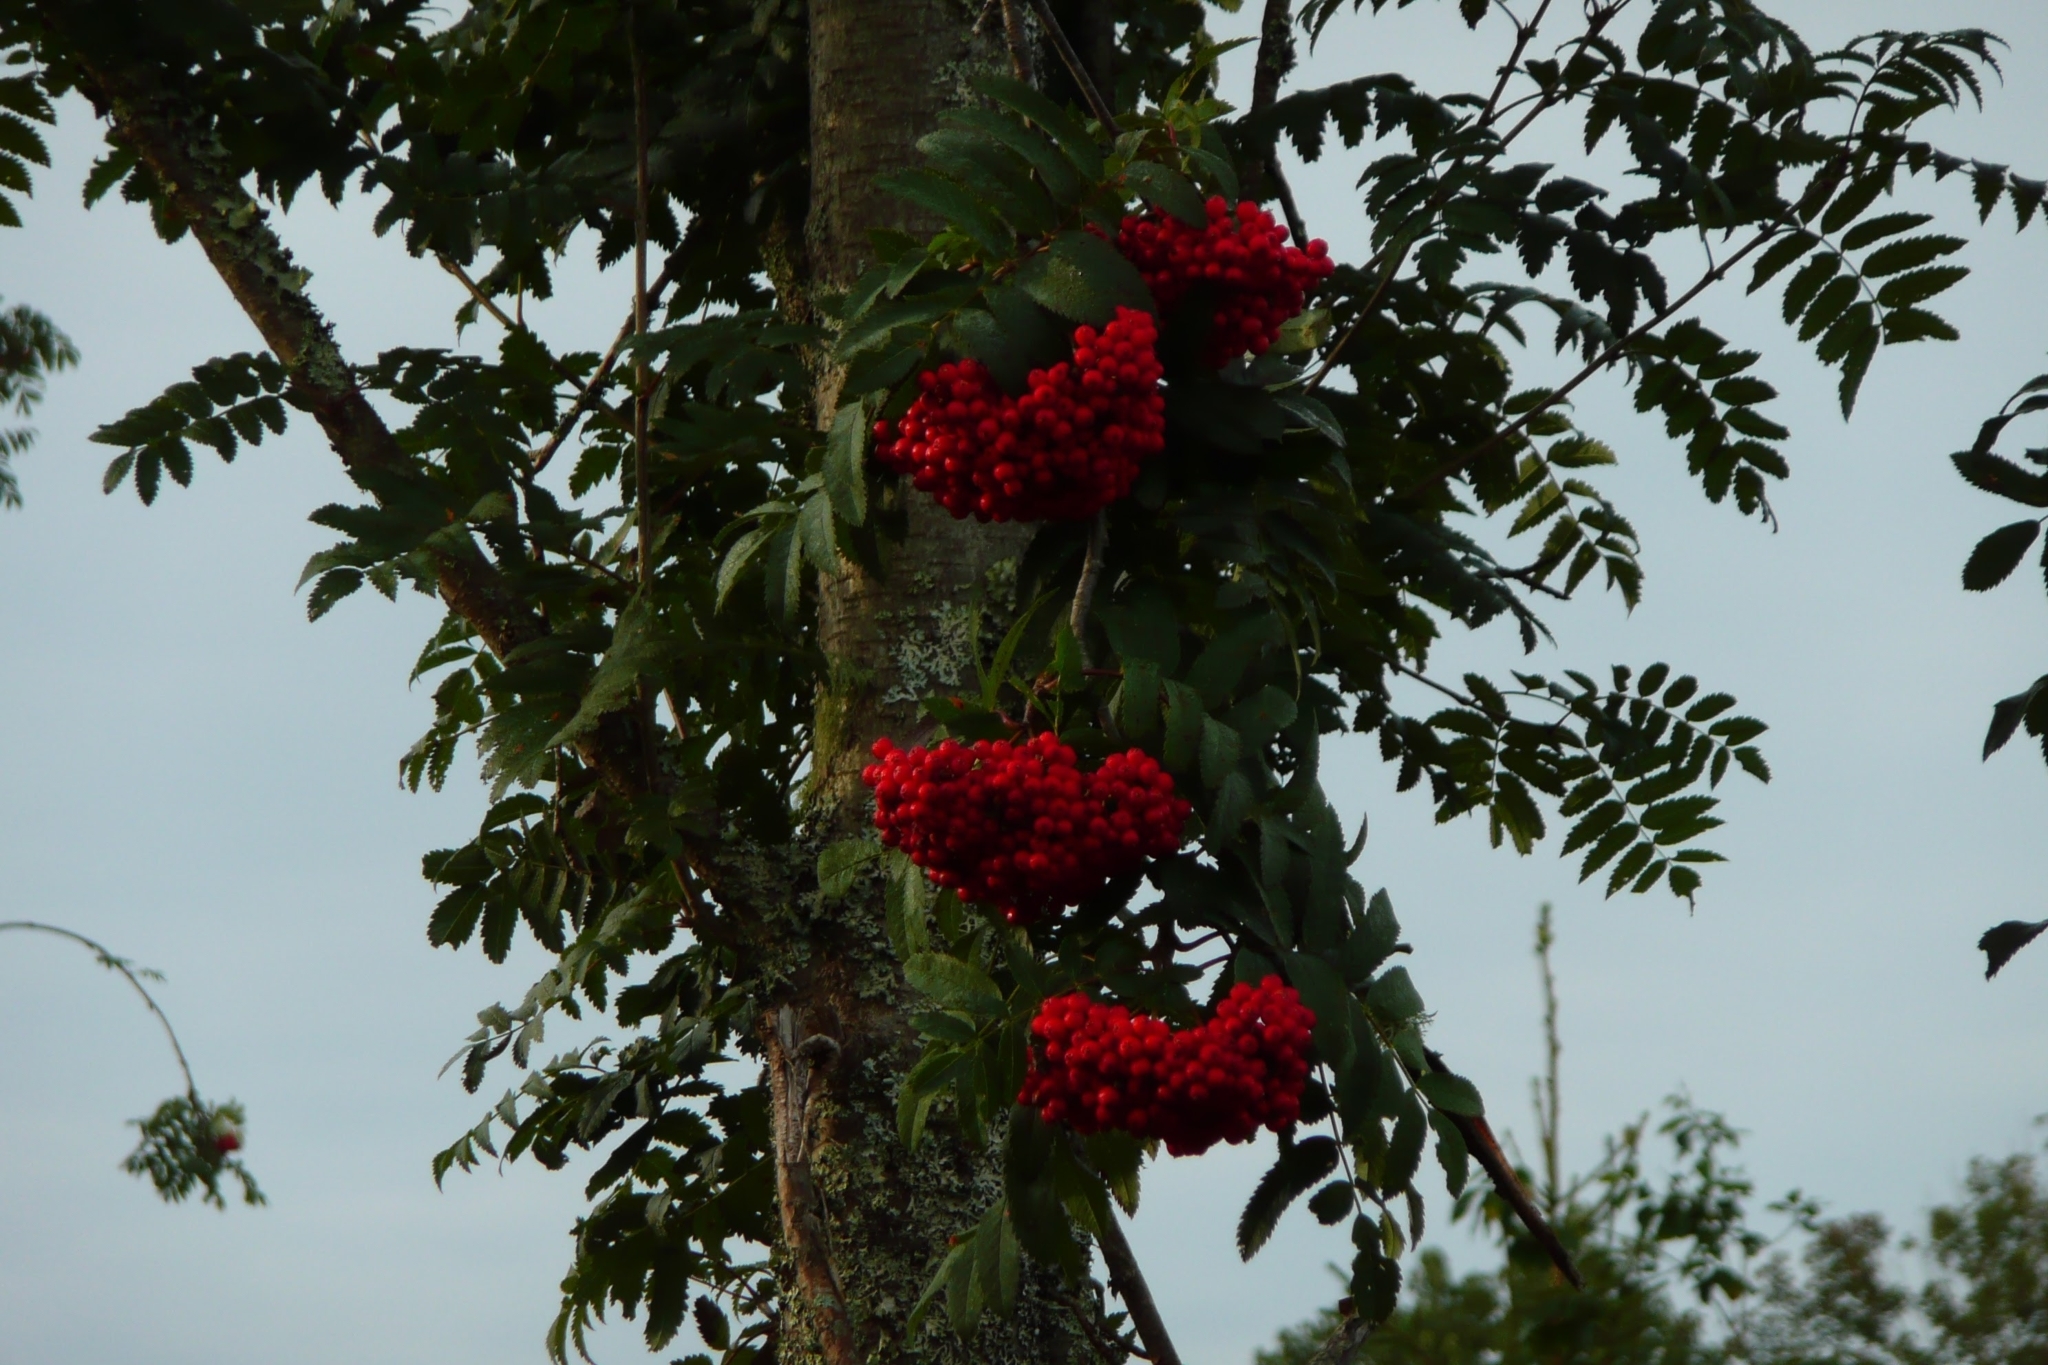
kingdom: Plantae
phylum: Tracheophyta
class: Magnoliopsida
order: Rosales
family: Rosaceae
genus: Sorbus
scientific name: Sorbus aucuparia
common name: Rowan
